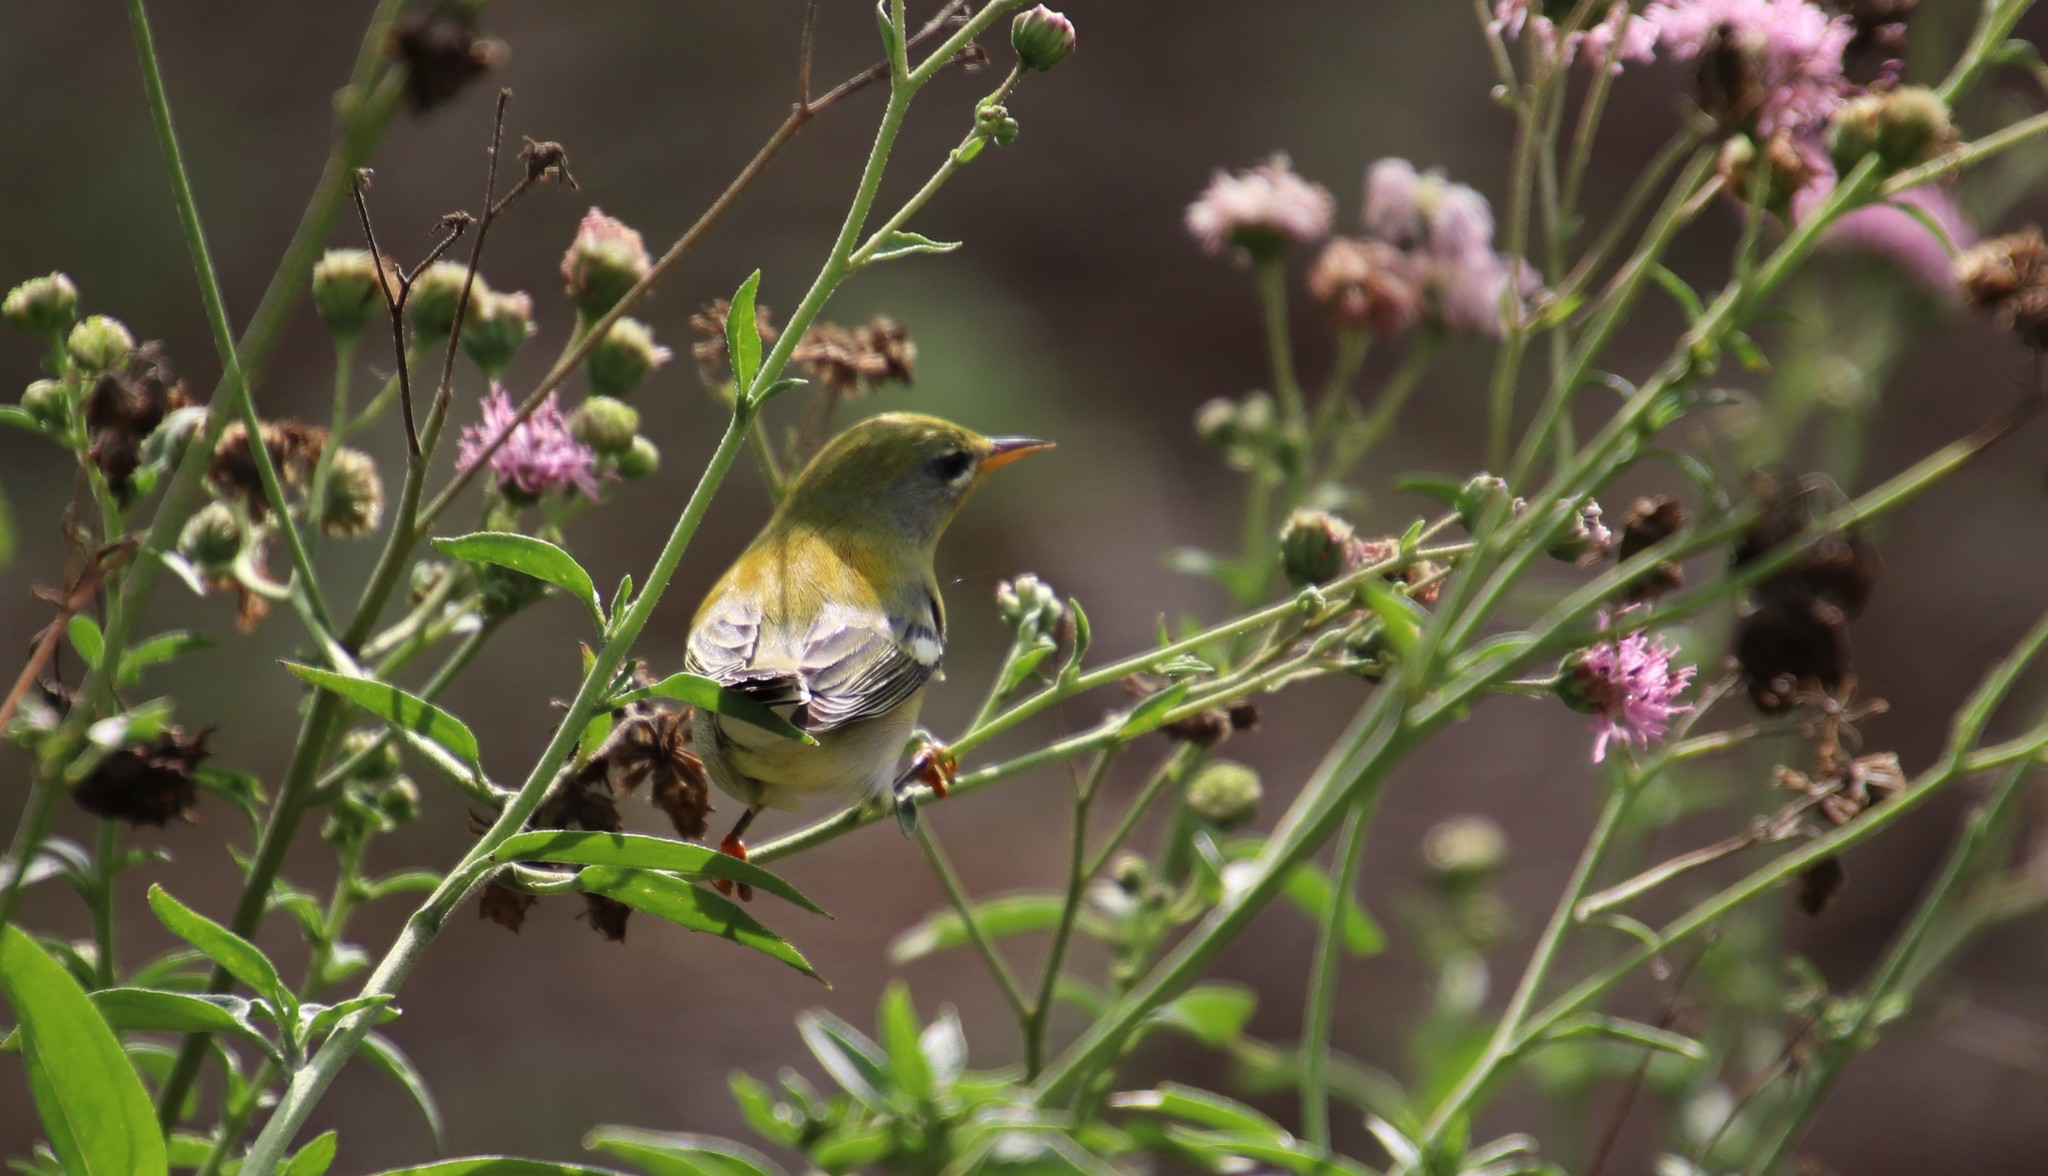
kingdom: Animalia
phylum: Chordata
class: Aves
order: Passeriformes
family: Parulidae
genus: Setophaga
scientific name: Setophaga americana
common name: Northern parula
